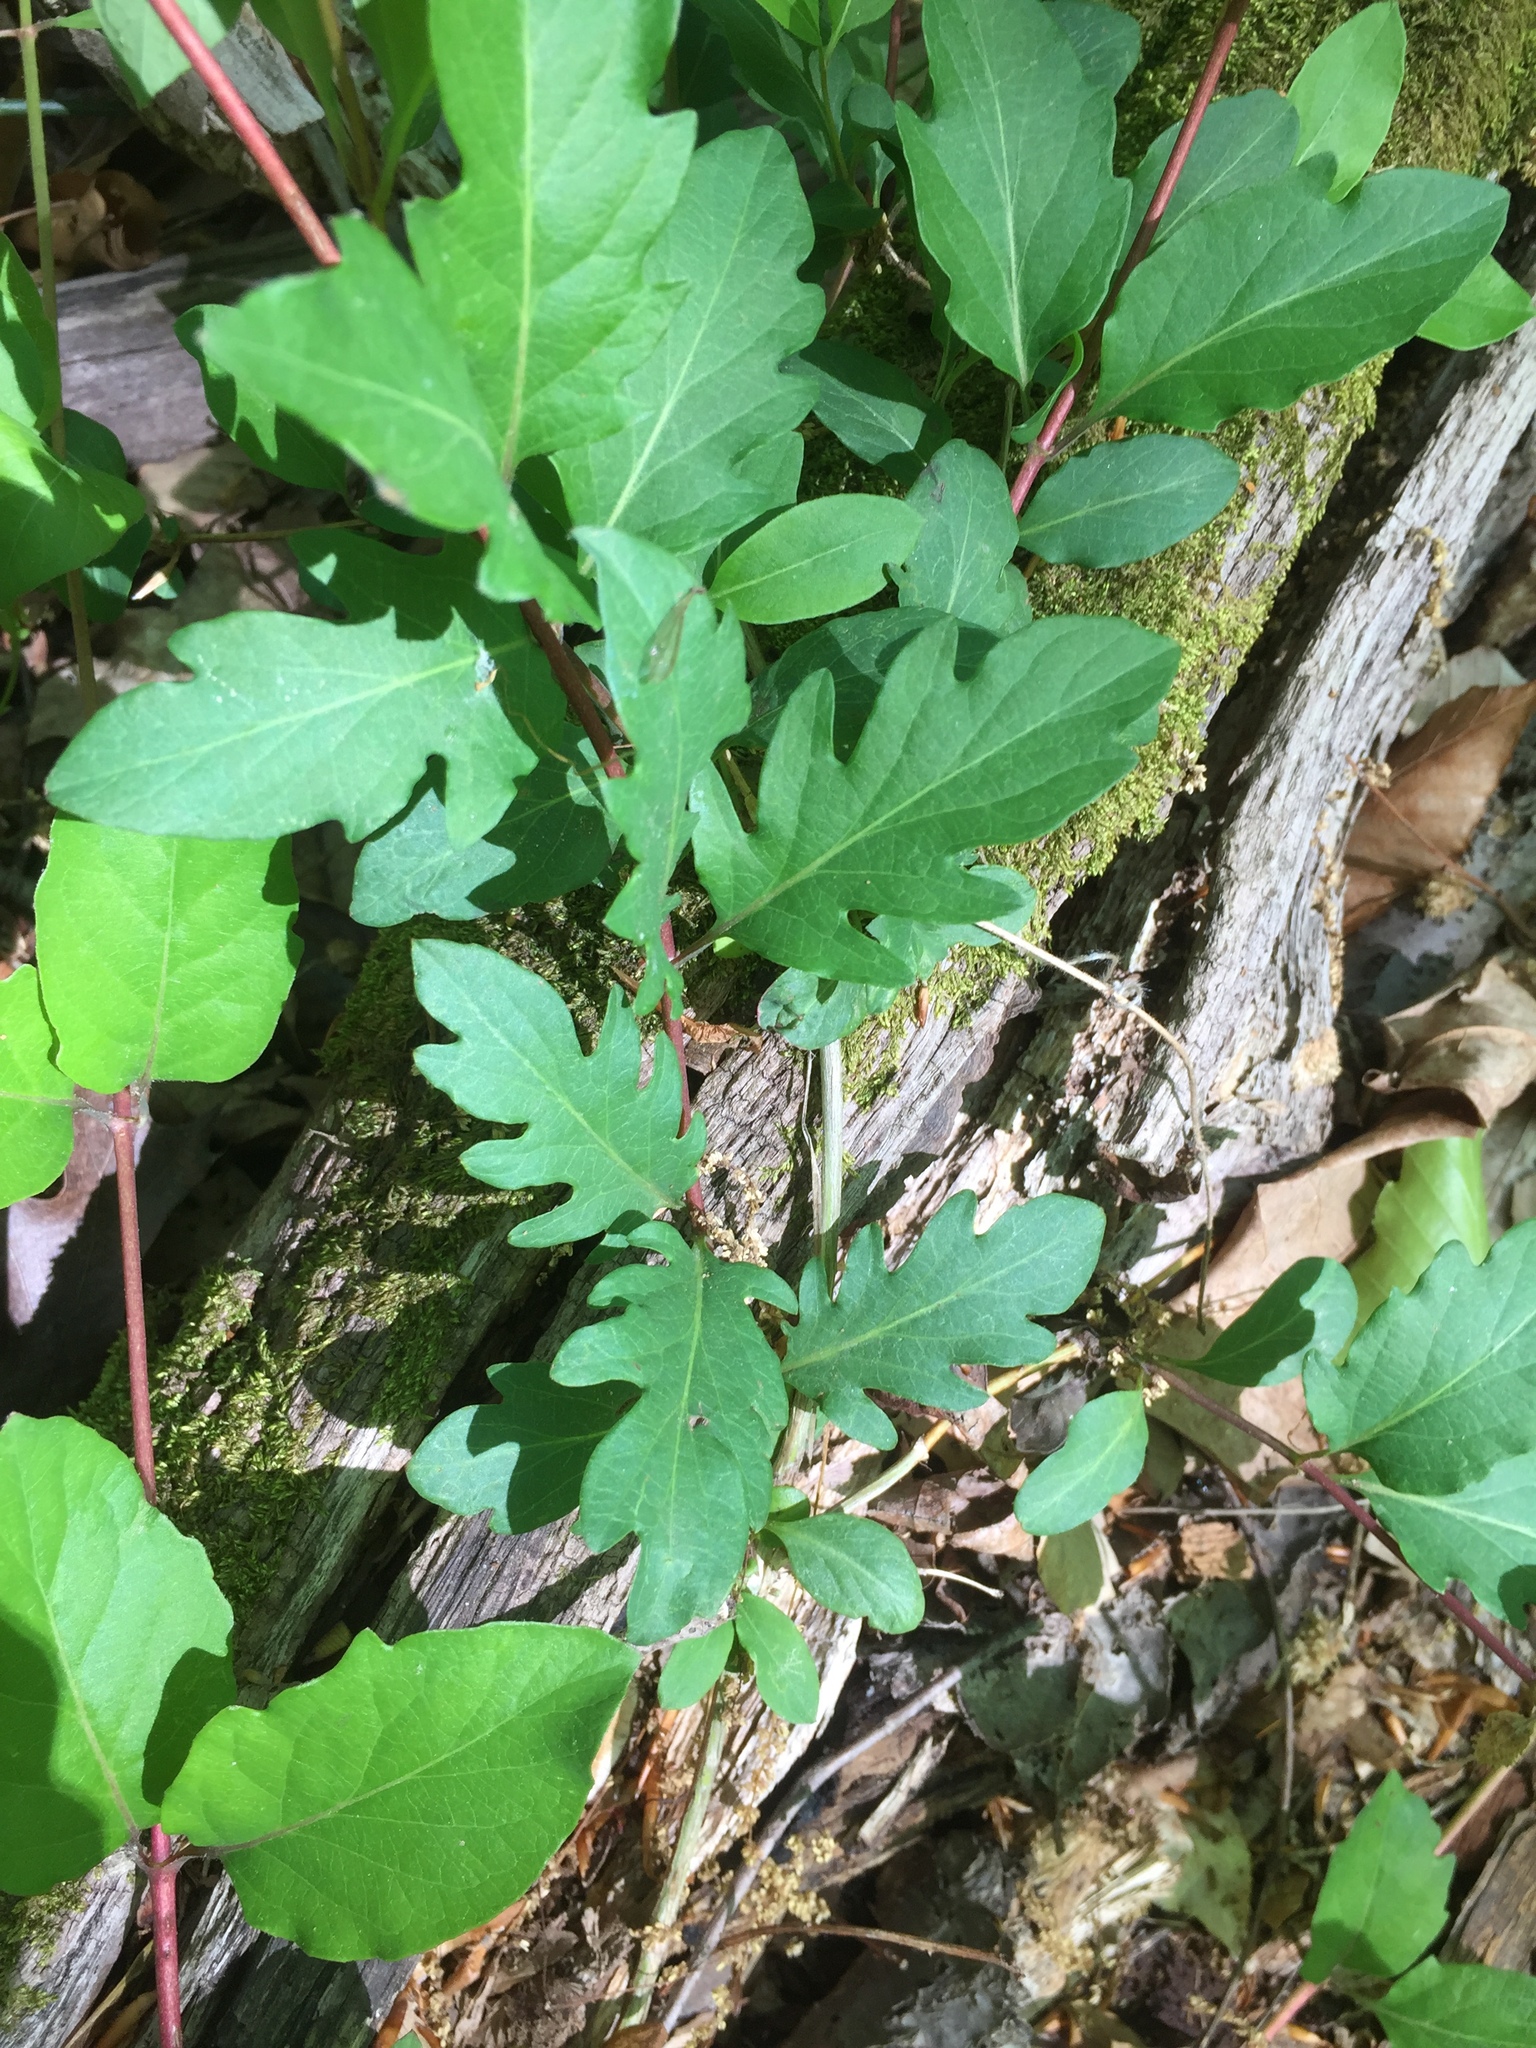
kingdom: Plantae
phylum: Tracheophyta
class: Magnoliopsida
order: Dipsacales
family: Caprifoliaceae
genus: Lonicera
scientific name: Lonicera japonica
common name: Japanese honeysuckle
